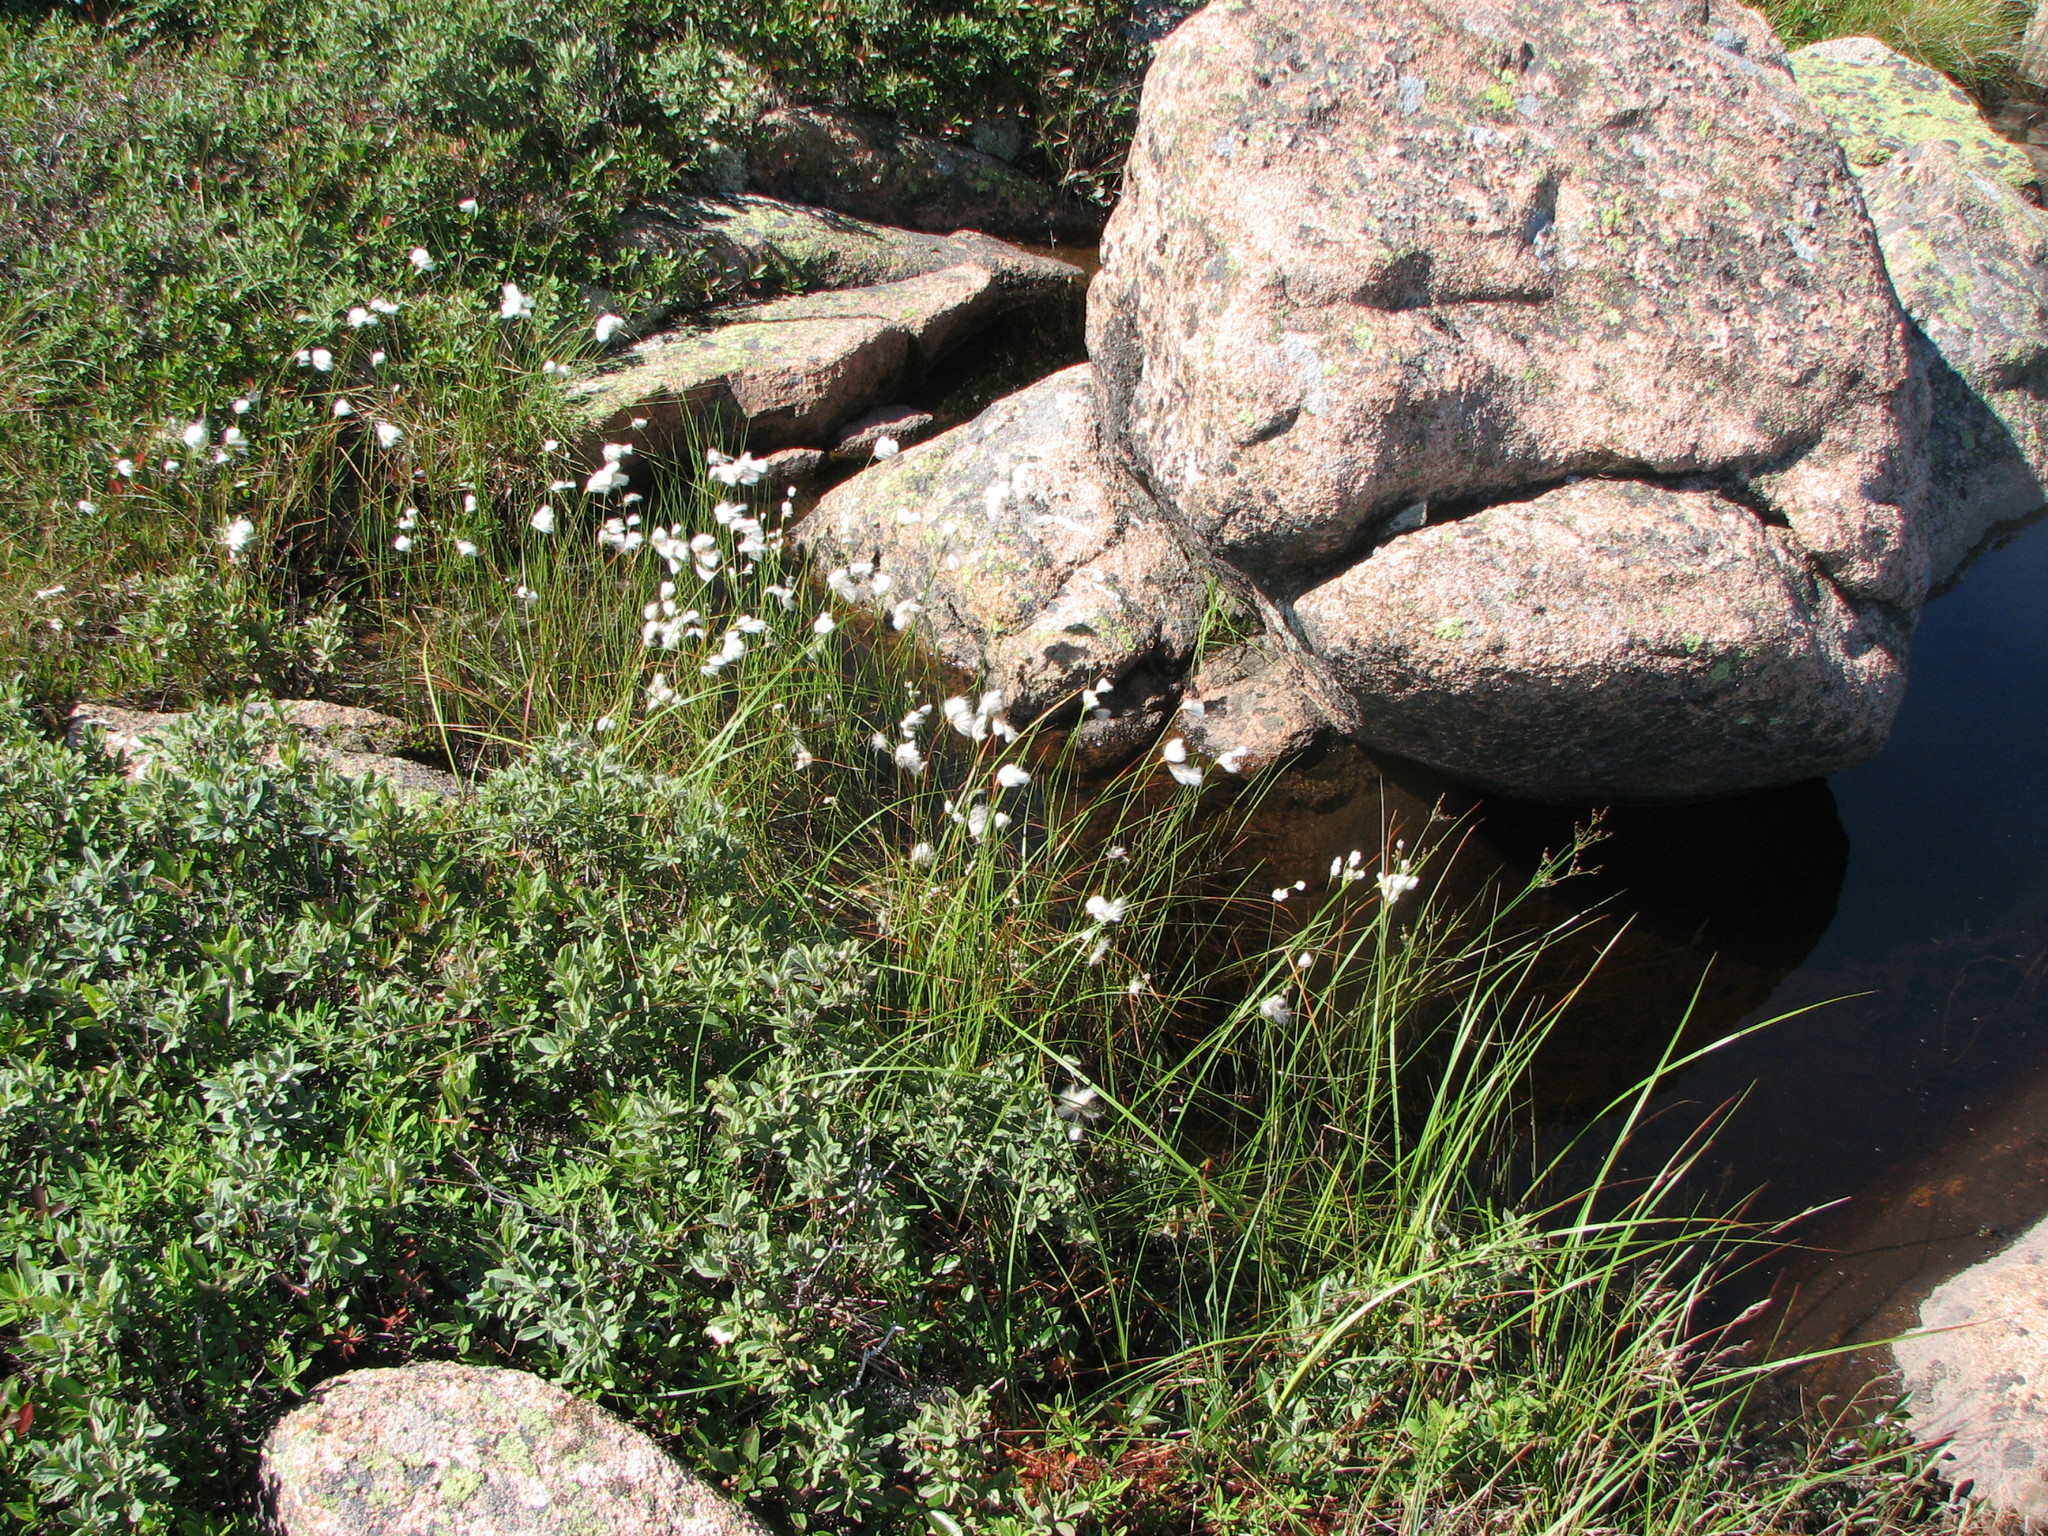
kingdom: Plantae
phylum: Tracheophyta
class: Liliopsida
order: Poales
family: Cyperaceae
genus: Eriophorum
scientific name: Eriophorum tenellum
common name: Few-nerved cottongrass
